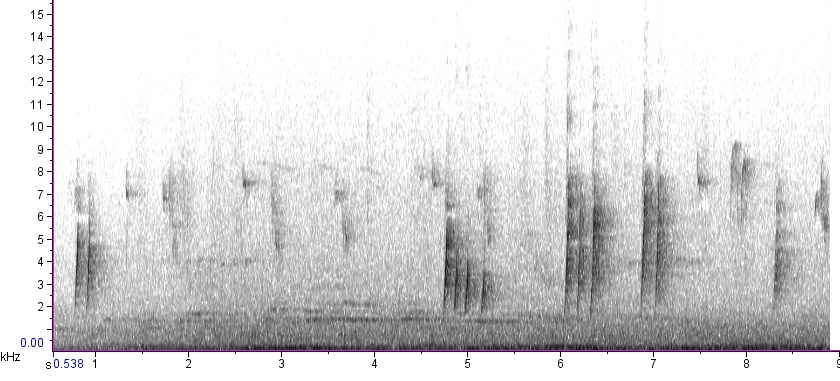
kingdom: Animalia
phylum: Chordata
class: Aves
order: Passeriformes
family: Turdidae
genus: Hylocichla
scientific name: Hylocichla mustelina
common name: Wood thrush
